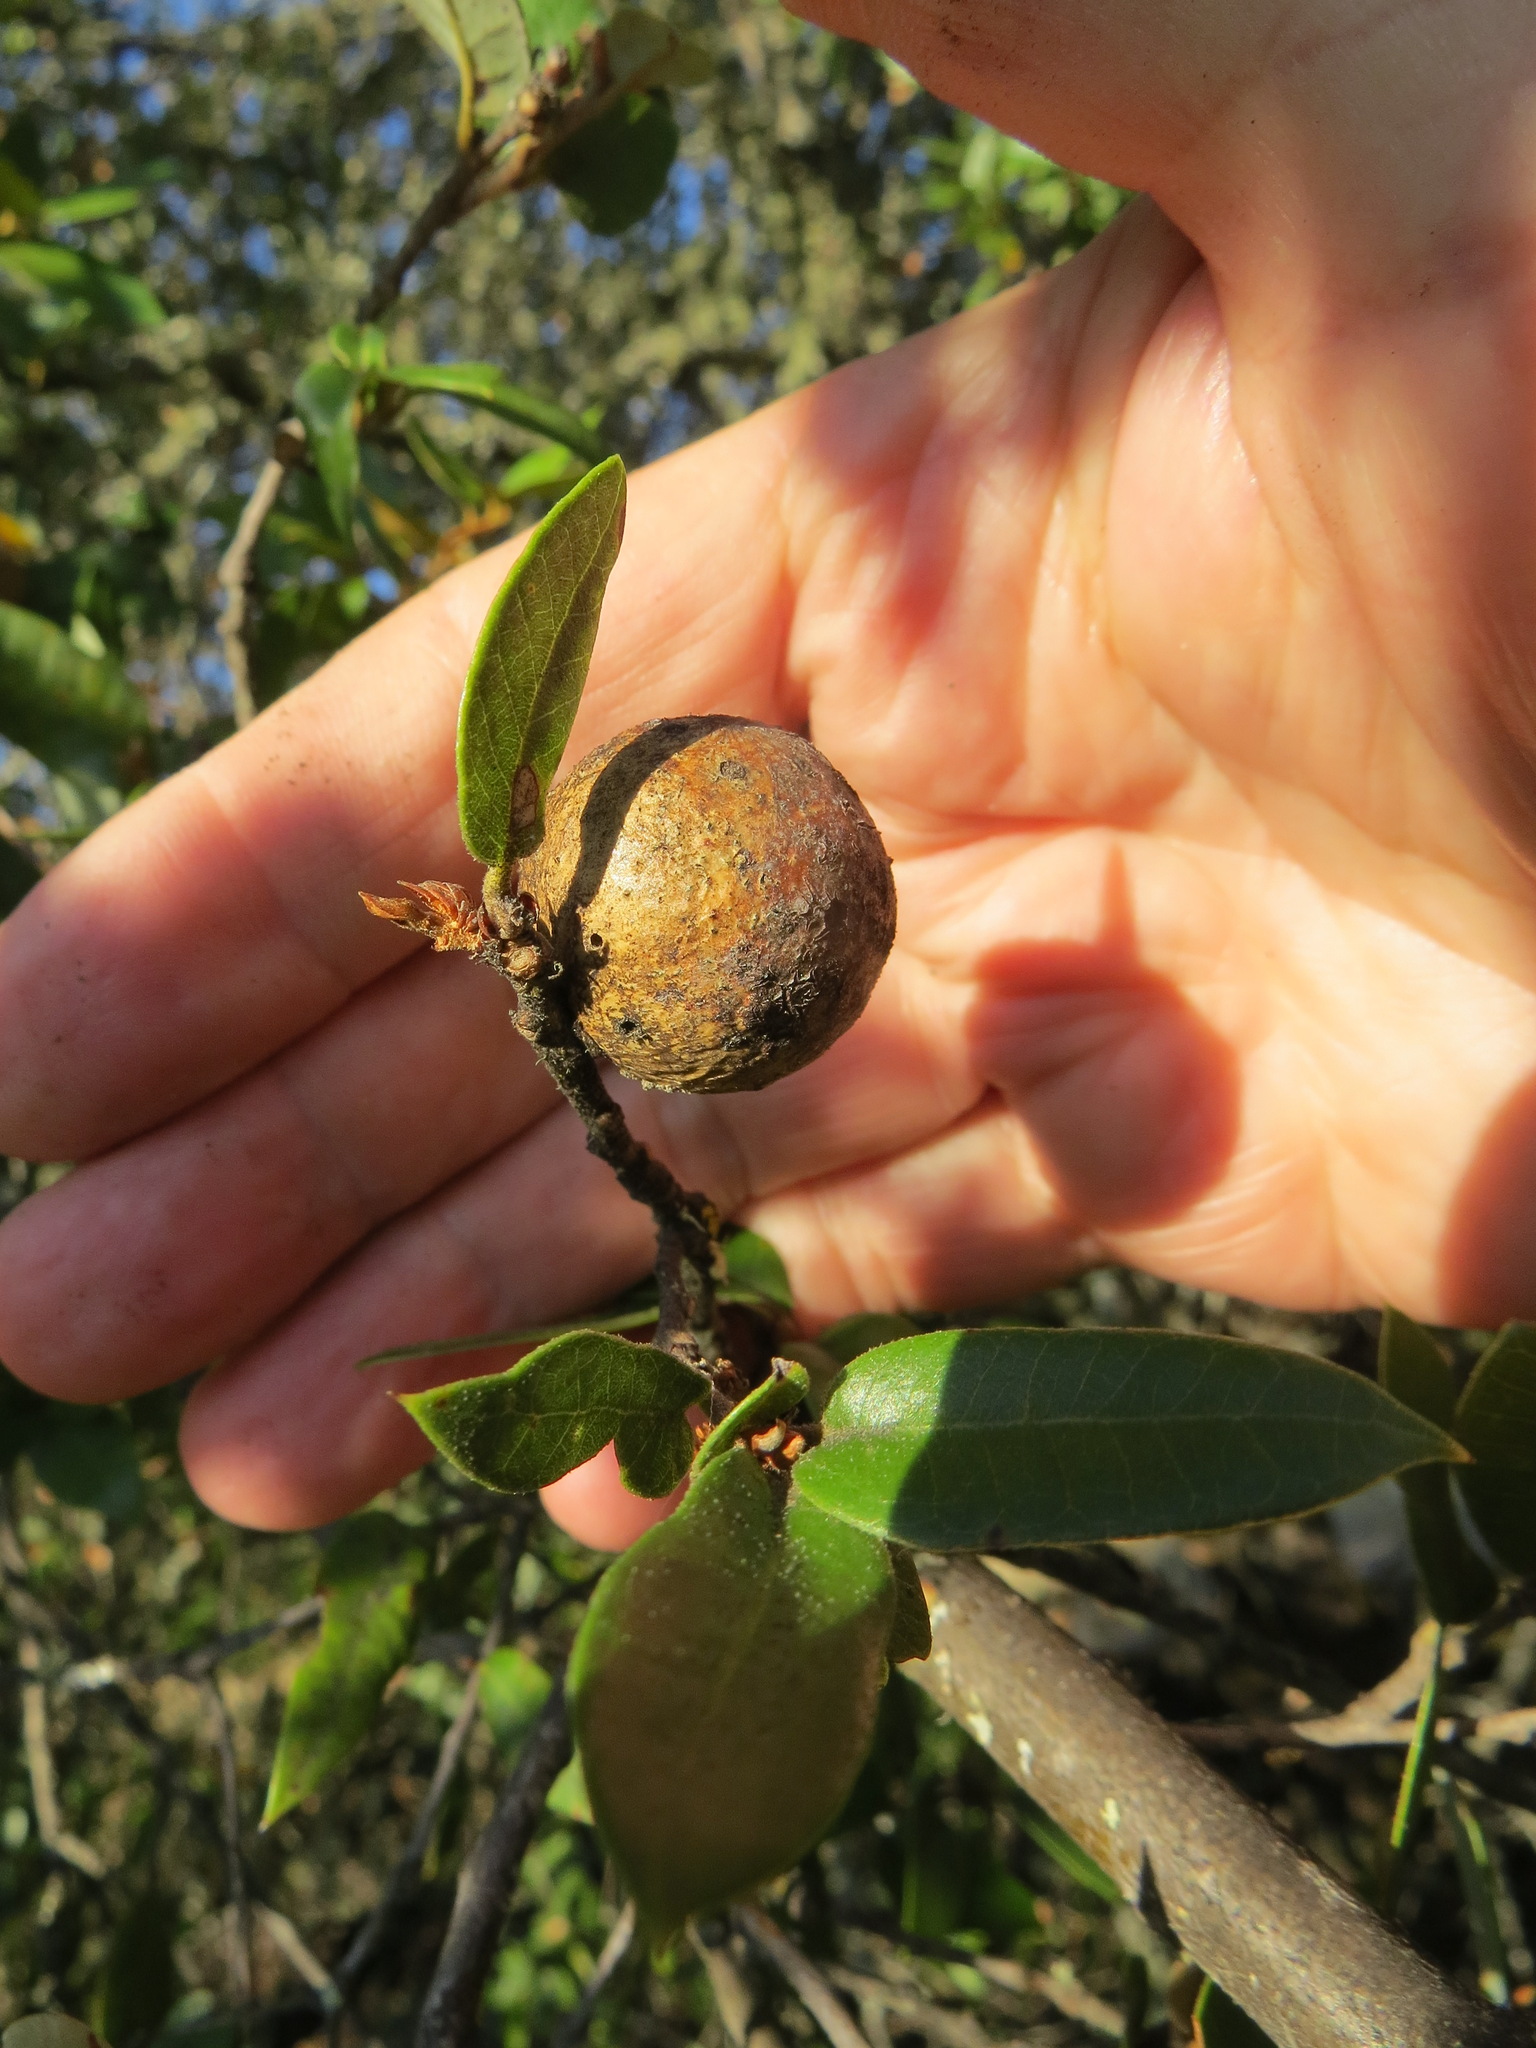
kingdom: Animalia
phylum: Arthropoda
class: Insecta
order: Hymenoptera
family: Cynipidae
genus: Disholandricus
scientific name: Disholandricus
